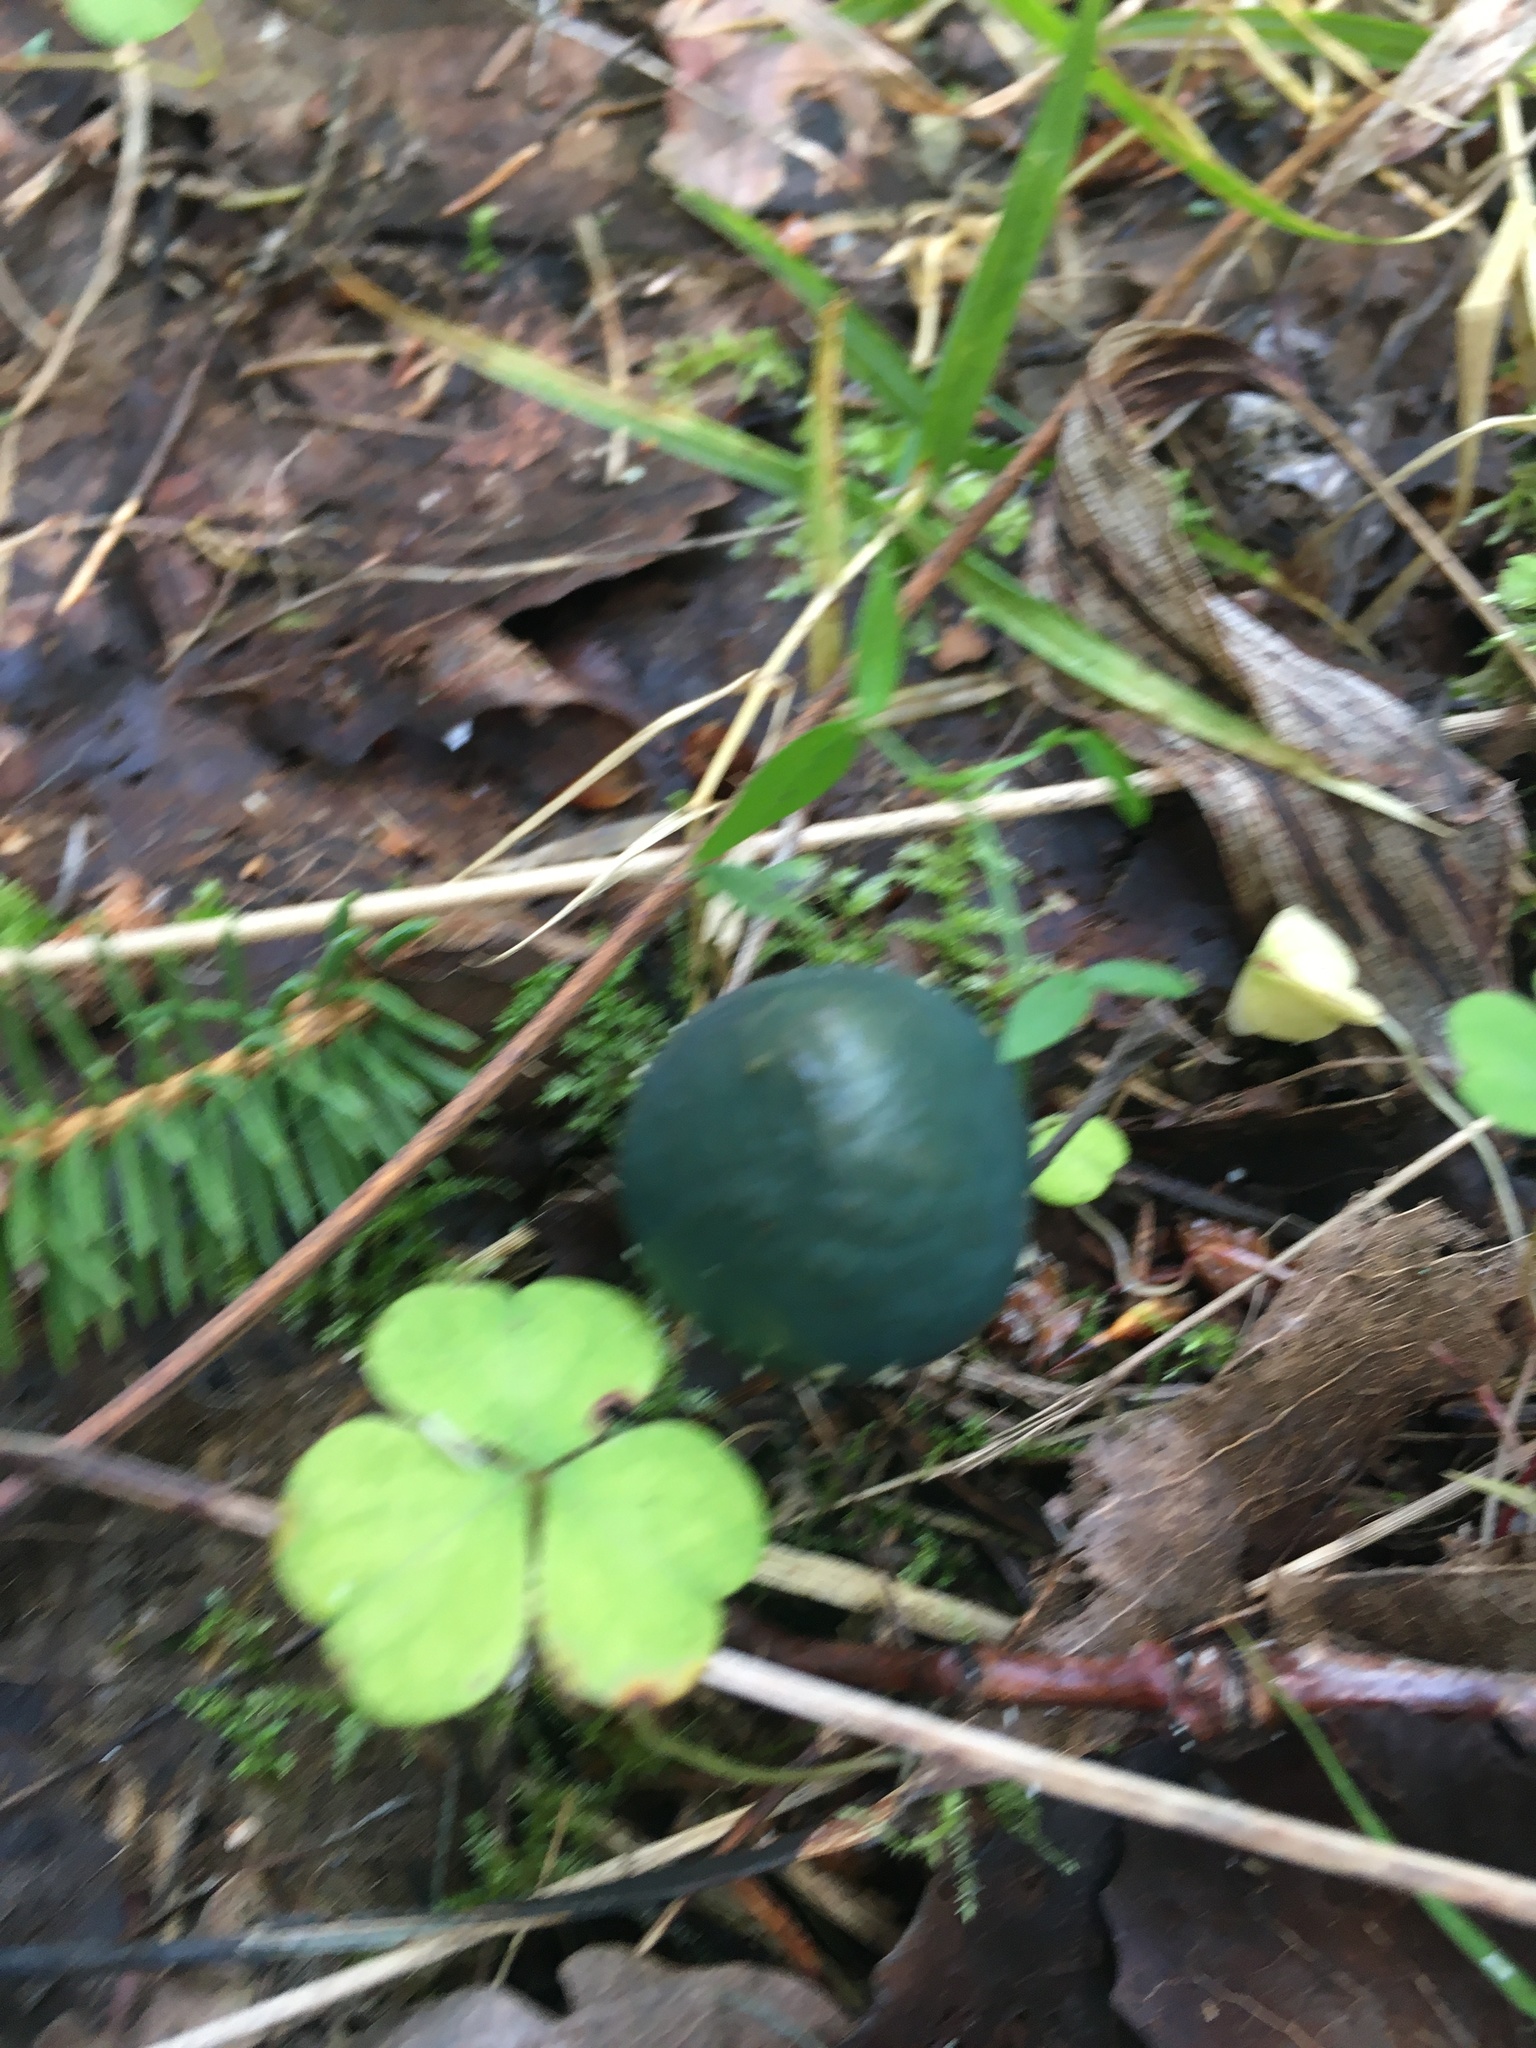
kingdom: Fungi
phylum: Basidiomycota
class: Agaricomycetes
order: Agaricales
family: Strophariaceae
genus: Stropharia
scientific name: Stropharia aeruginosa
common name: Verdigris roundhead
